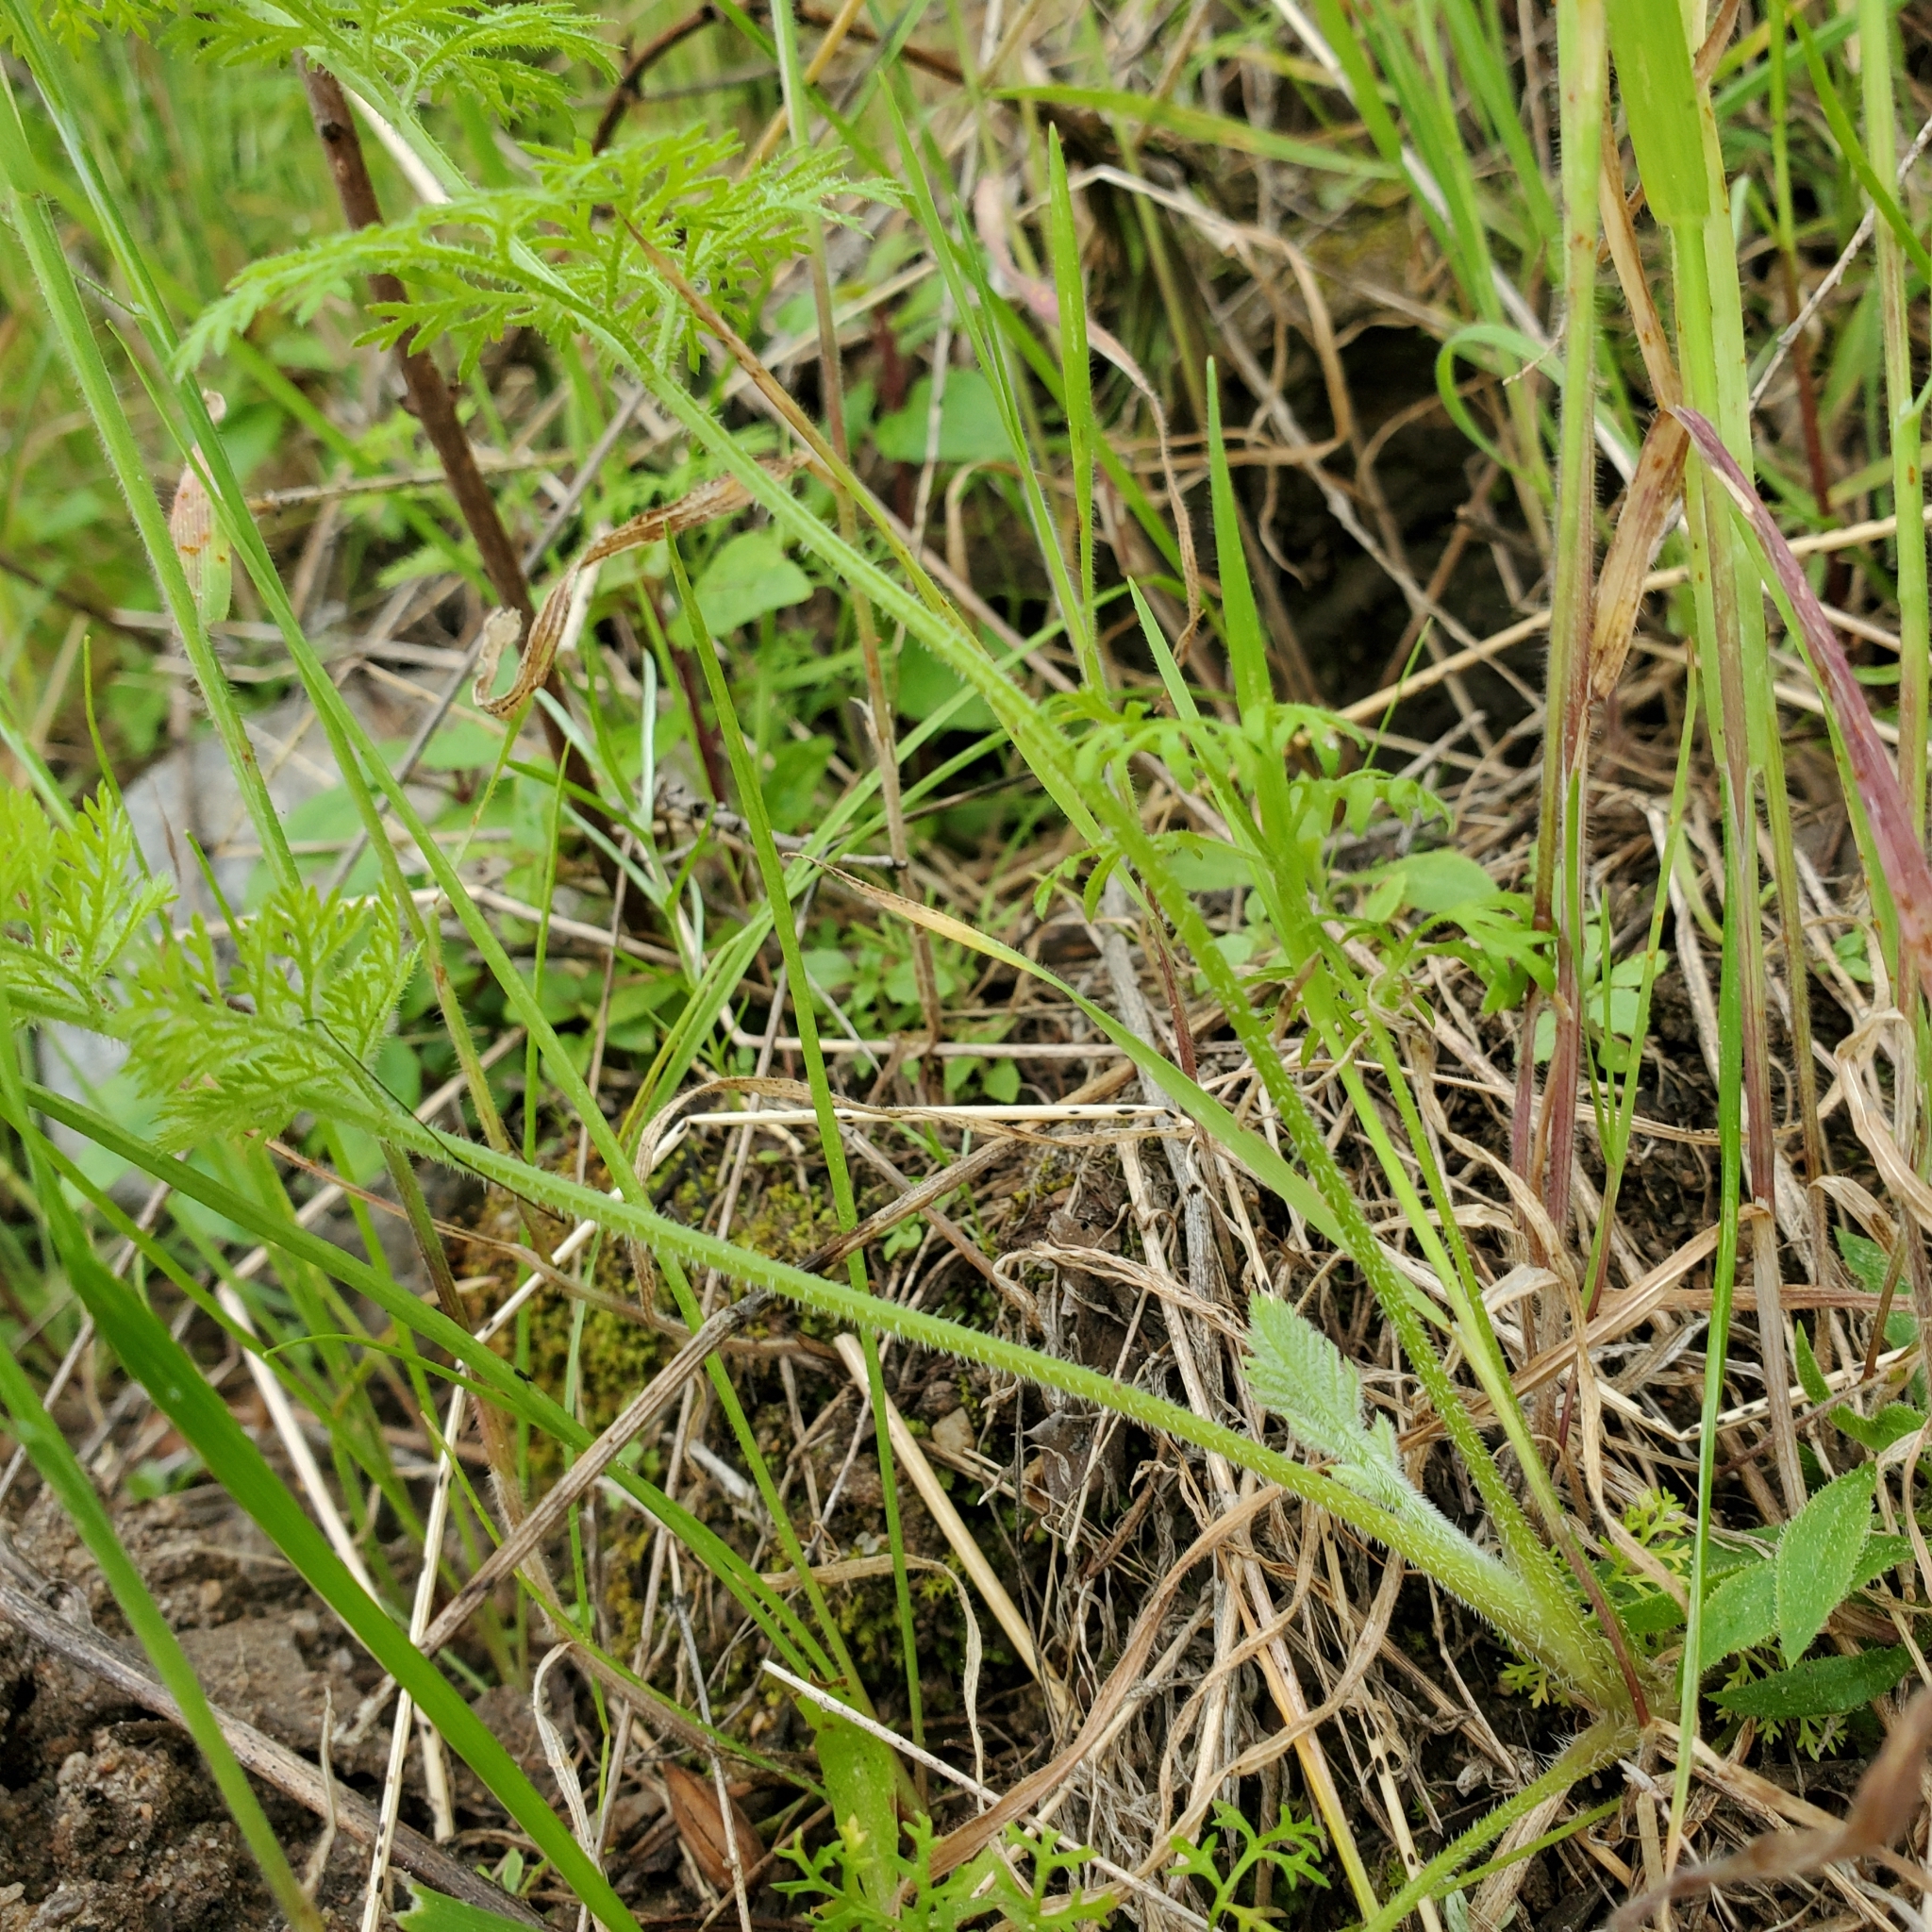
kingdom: Plantae
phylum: Tracheophyta
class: Magnoliopsida
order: Apiales
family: Apiaceae
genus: Daucus
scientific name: Daucus pusillus
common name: Southwest wild carrot
